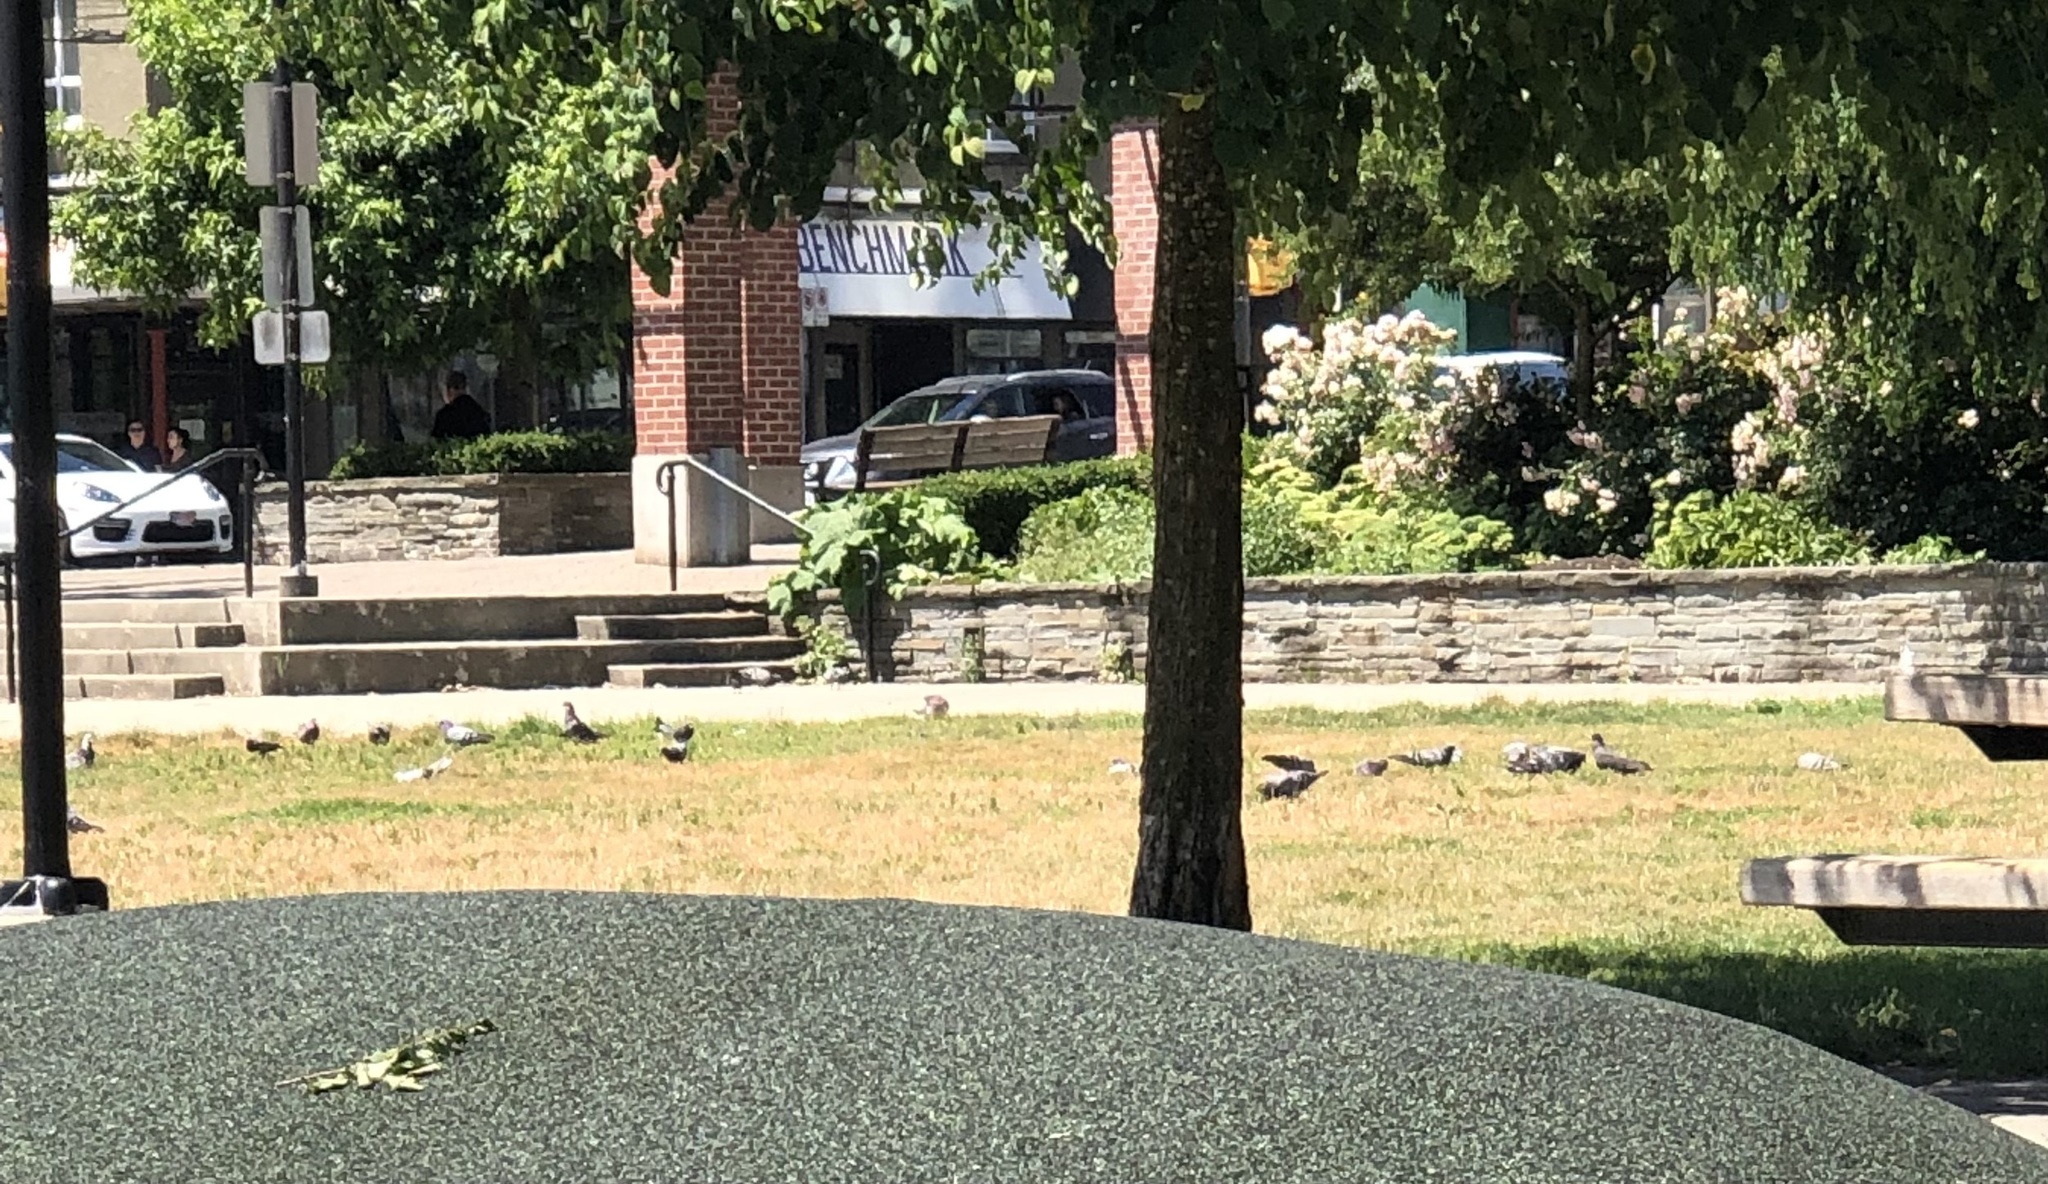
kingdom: Animalia
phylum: Chordata
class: Aves
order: Columbiformes
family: Columbidae
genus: Columba
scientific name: Columba livia
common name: Rock pigeon
